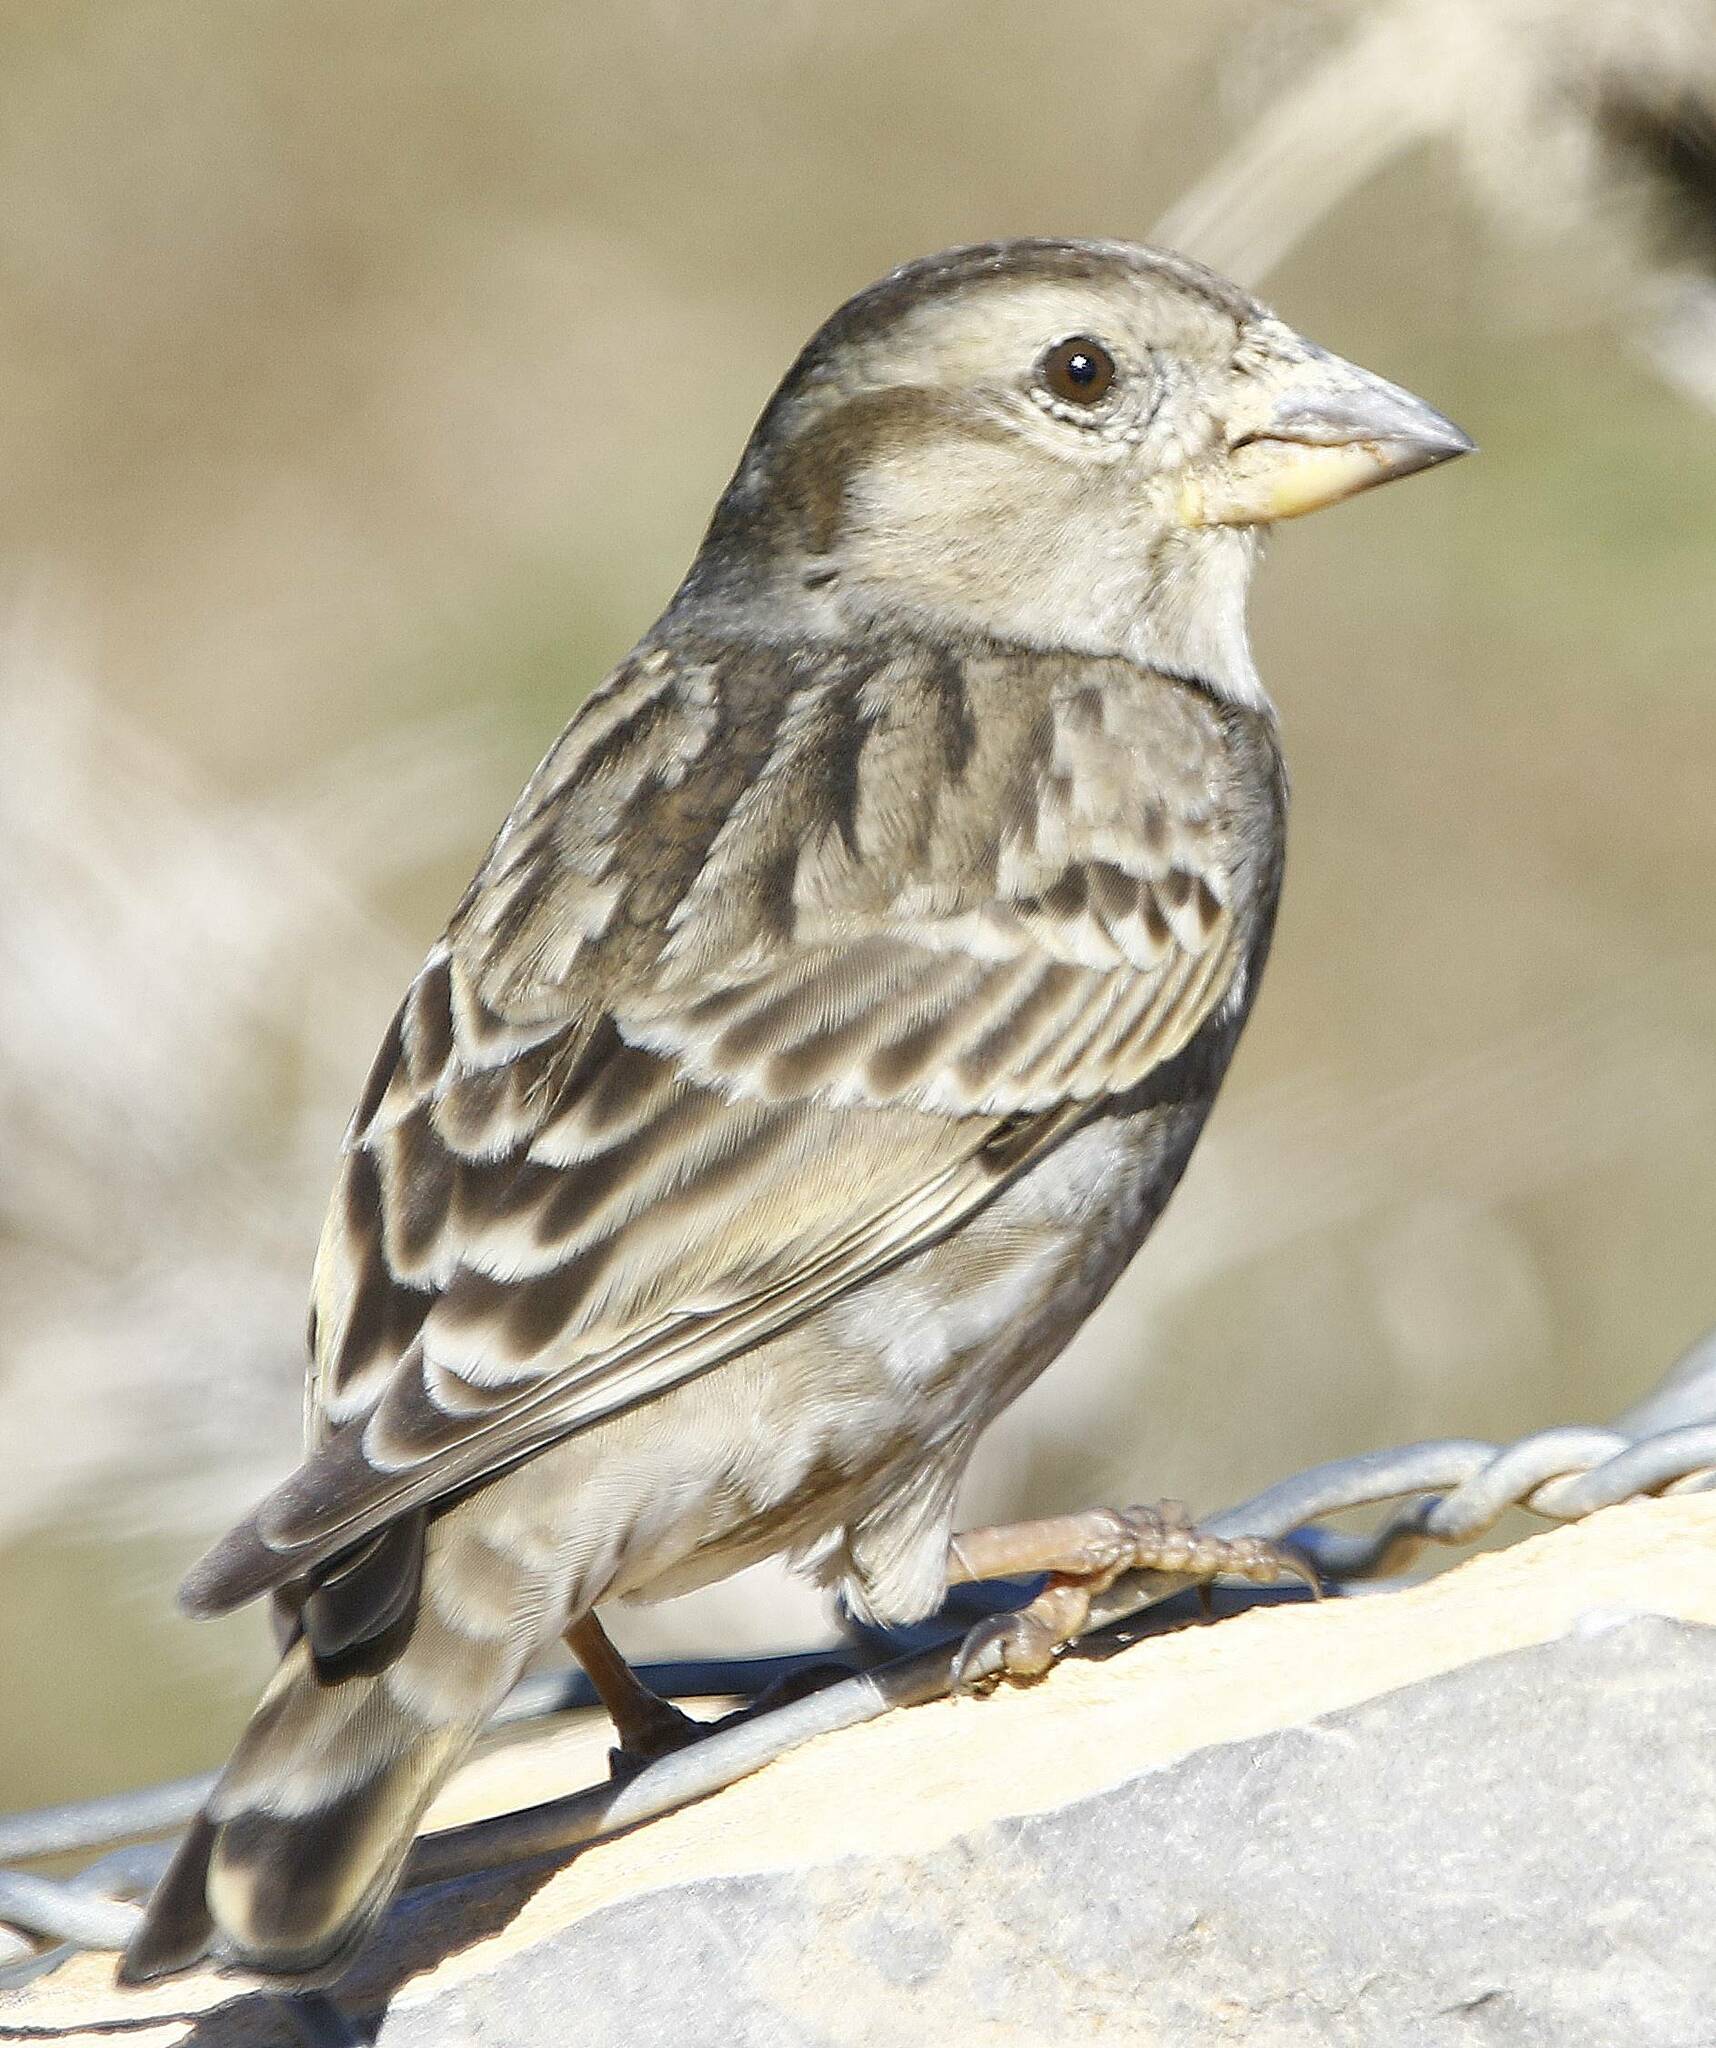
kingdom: Animalia
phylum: Chordata
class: Aves
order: Passeriformes
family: Passeridae
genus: Petronia
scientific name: Petronia petronia
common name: Rock sparrow
